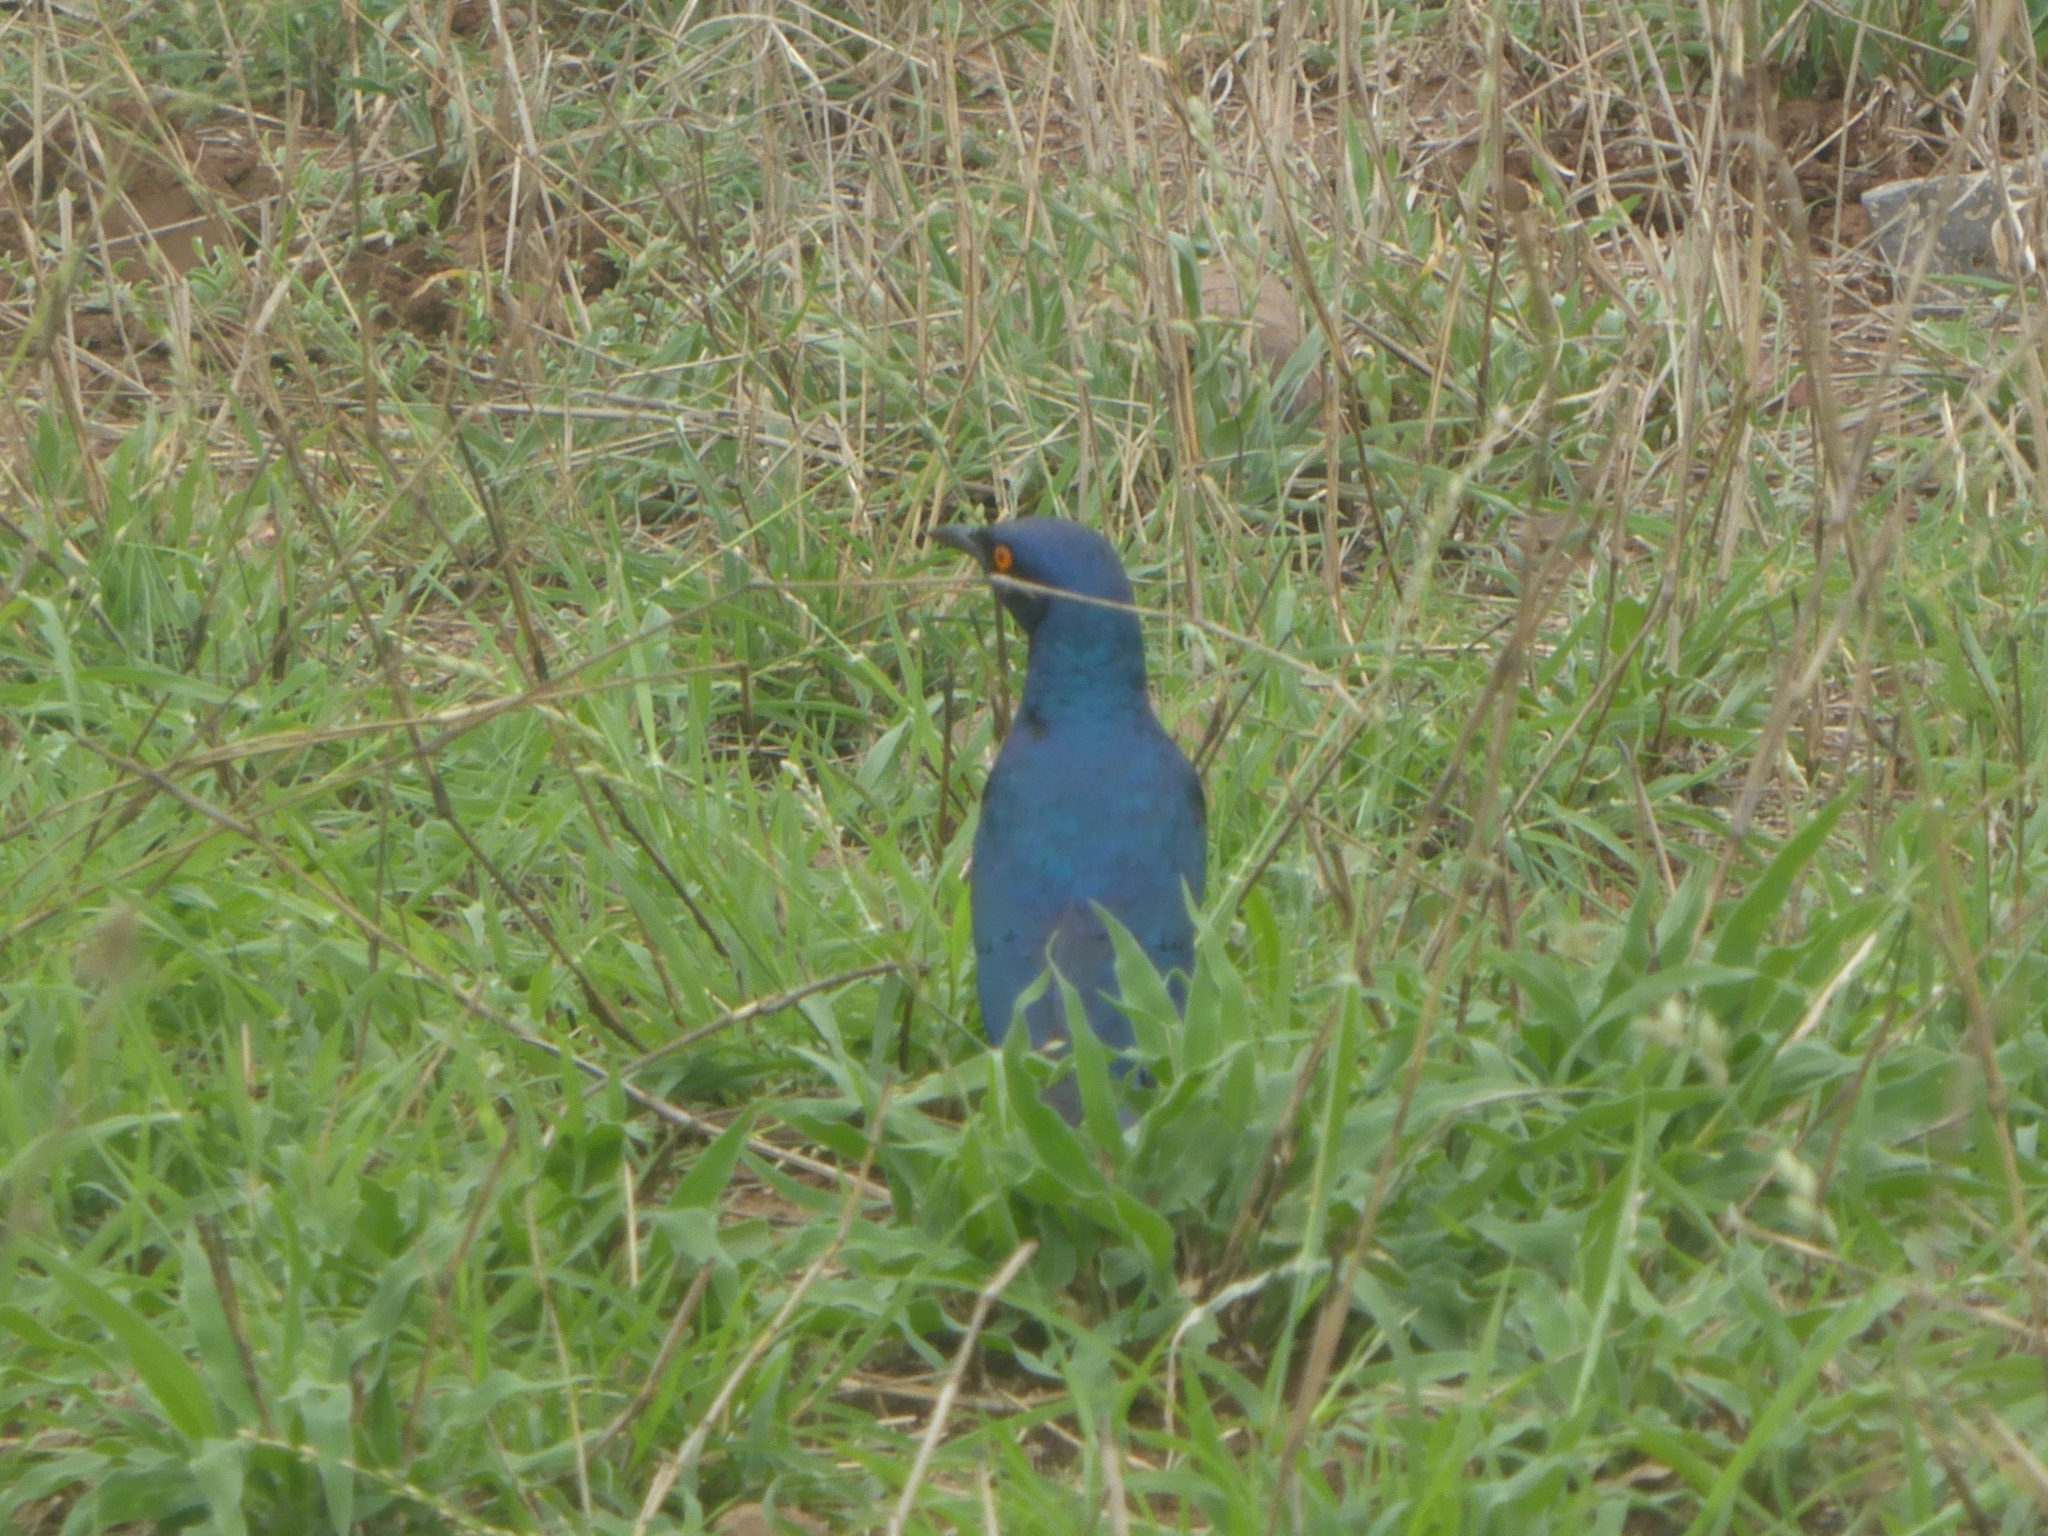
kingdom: Animalia
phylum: Chordata
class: Aves
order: Passeriformes
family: Sturnidae
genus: Lamprotornis
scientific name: Lamprotornis chalybaeus
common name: Greater blue-eared starling
